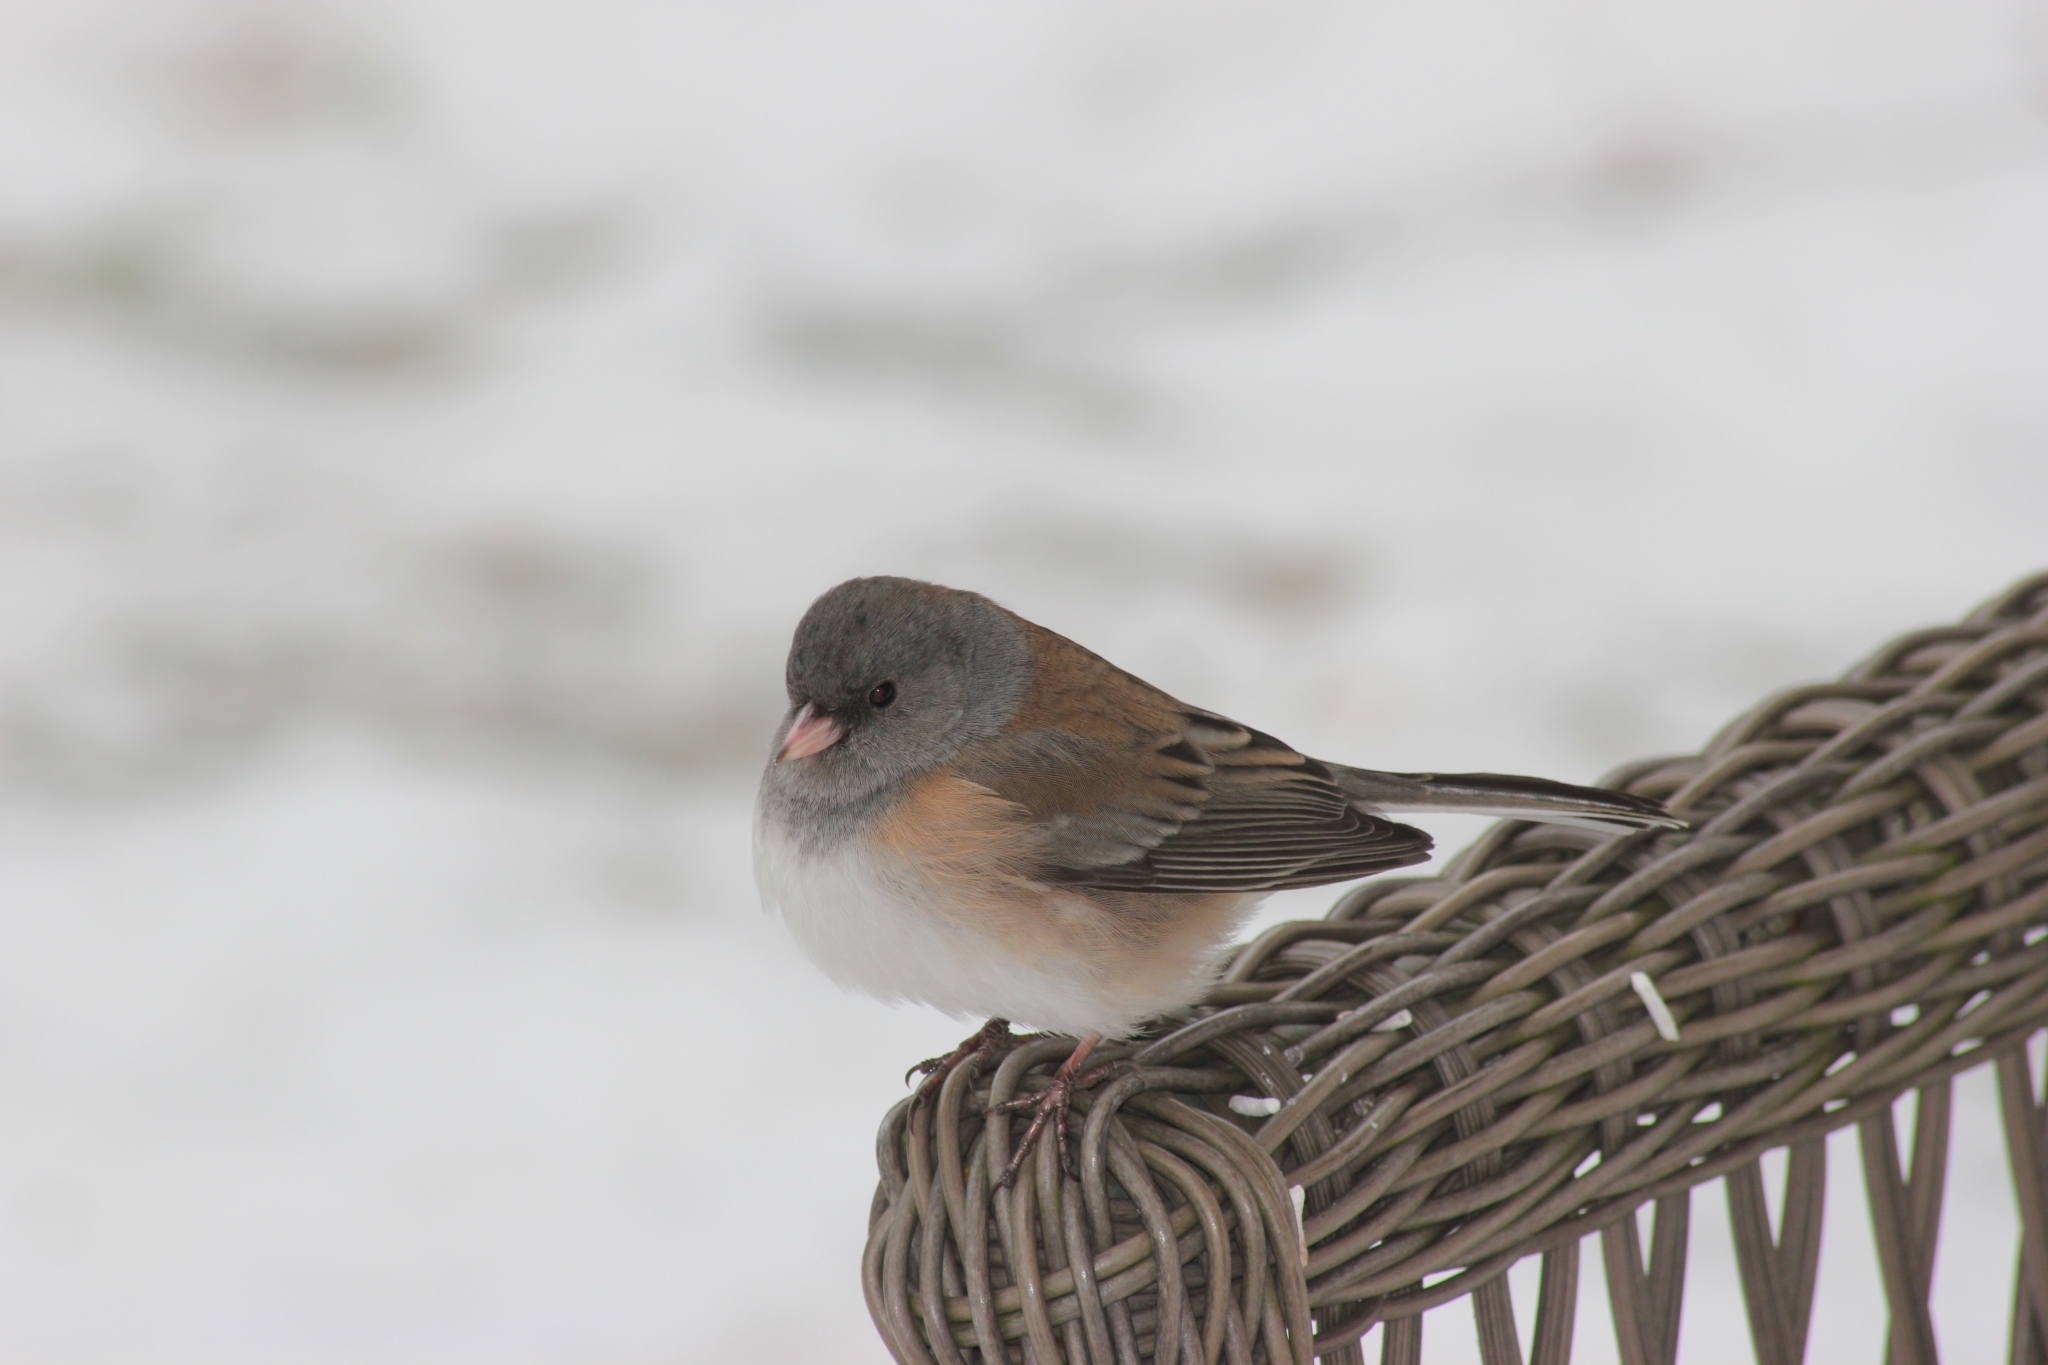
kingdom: Animalia
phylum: Chordata
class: Aves
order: Passeriformes
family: Passerellidae
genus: Junco
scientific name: Junco hyemalis
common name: Dark-eyed junco
